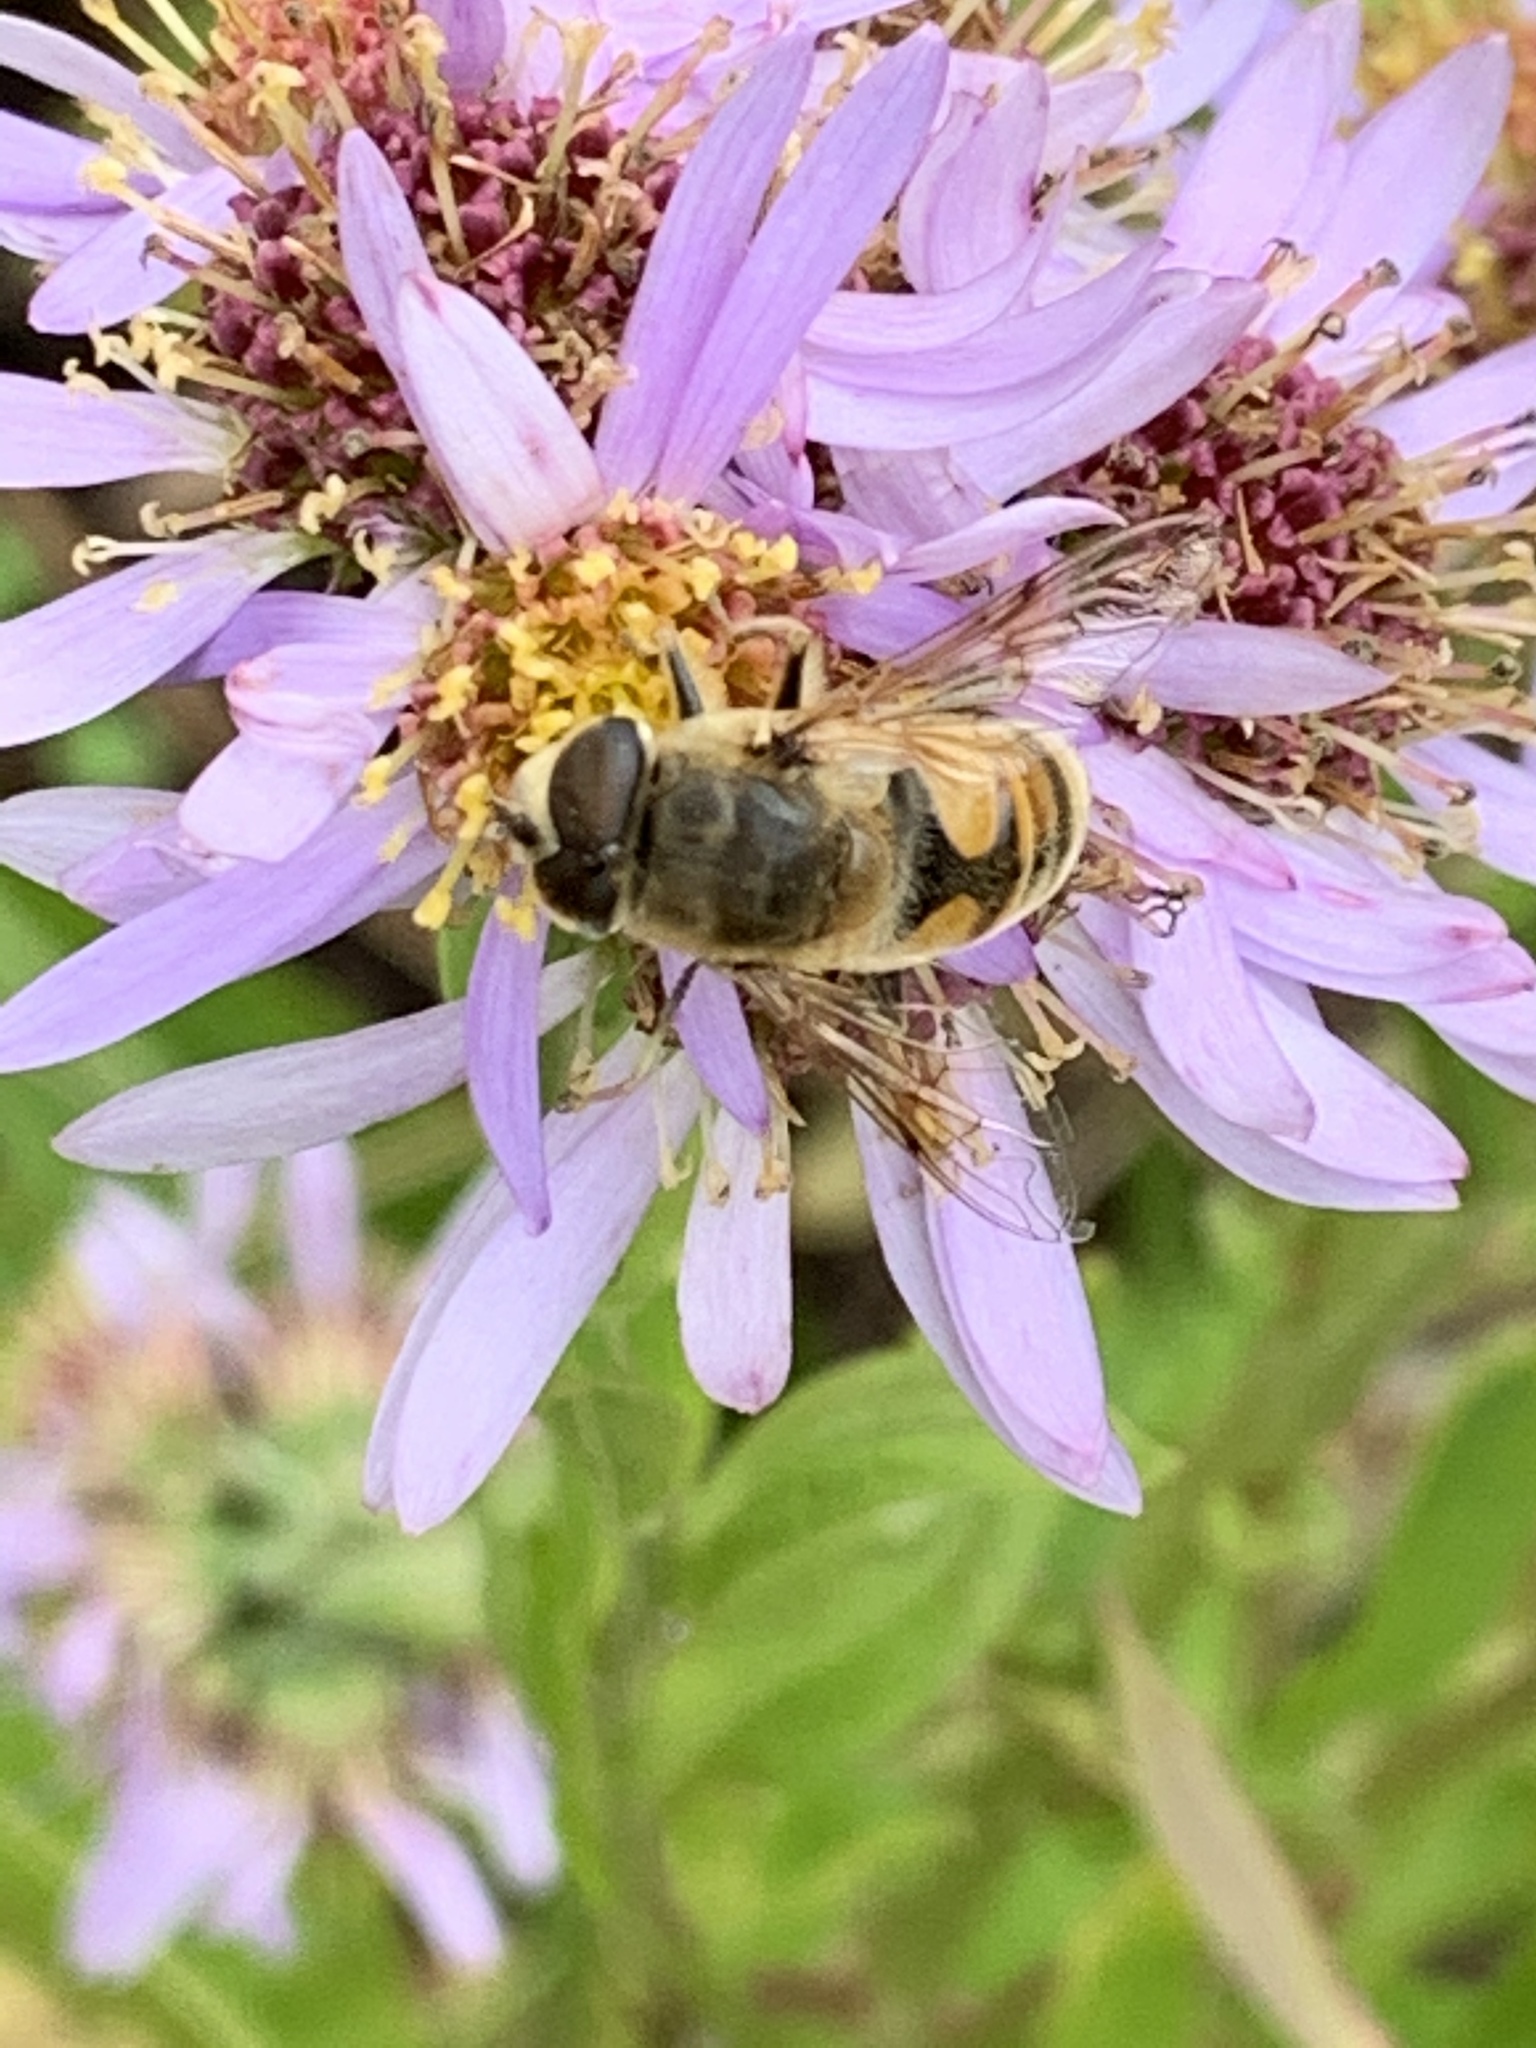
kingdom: Animalia
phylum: Arthropoda
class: Insecta
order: Diptera
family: Syrphidae
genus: Eristalis
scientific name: Eristalis tenax
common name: Drone fly
